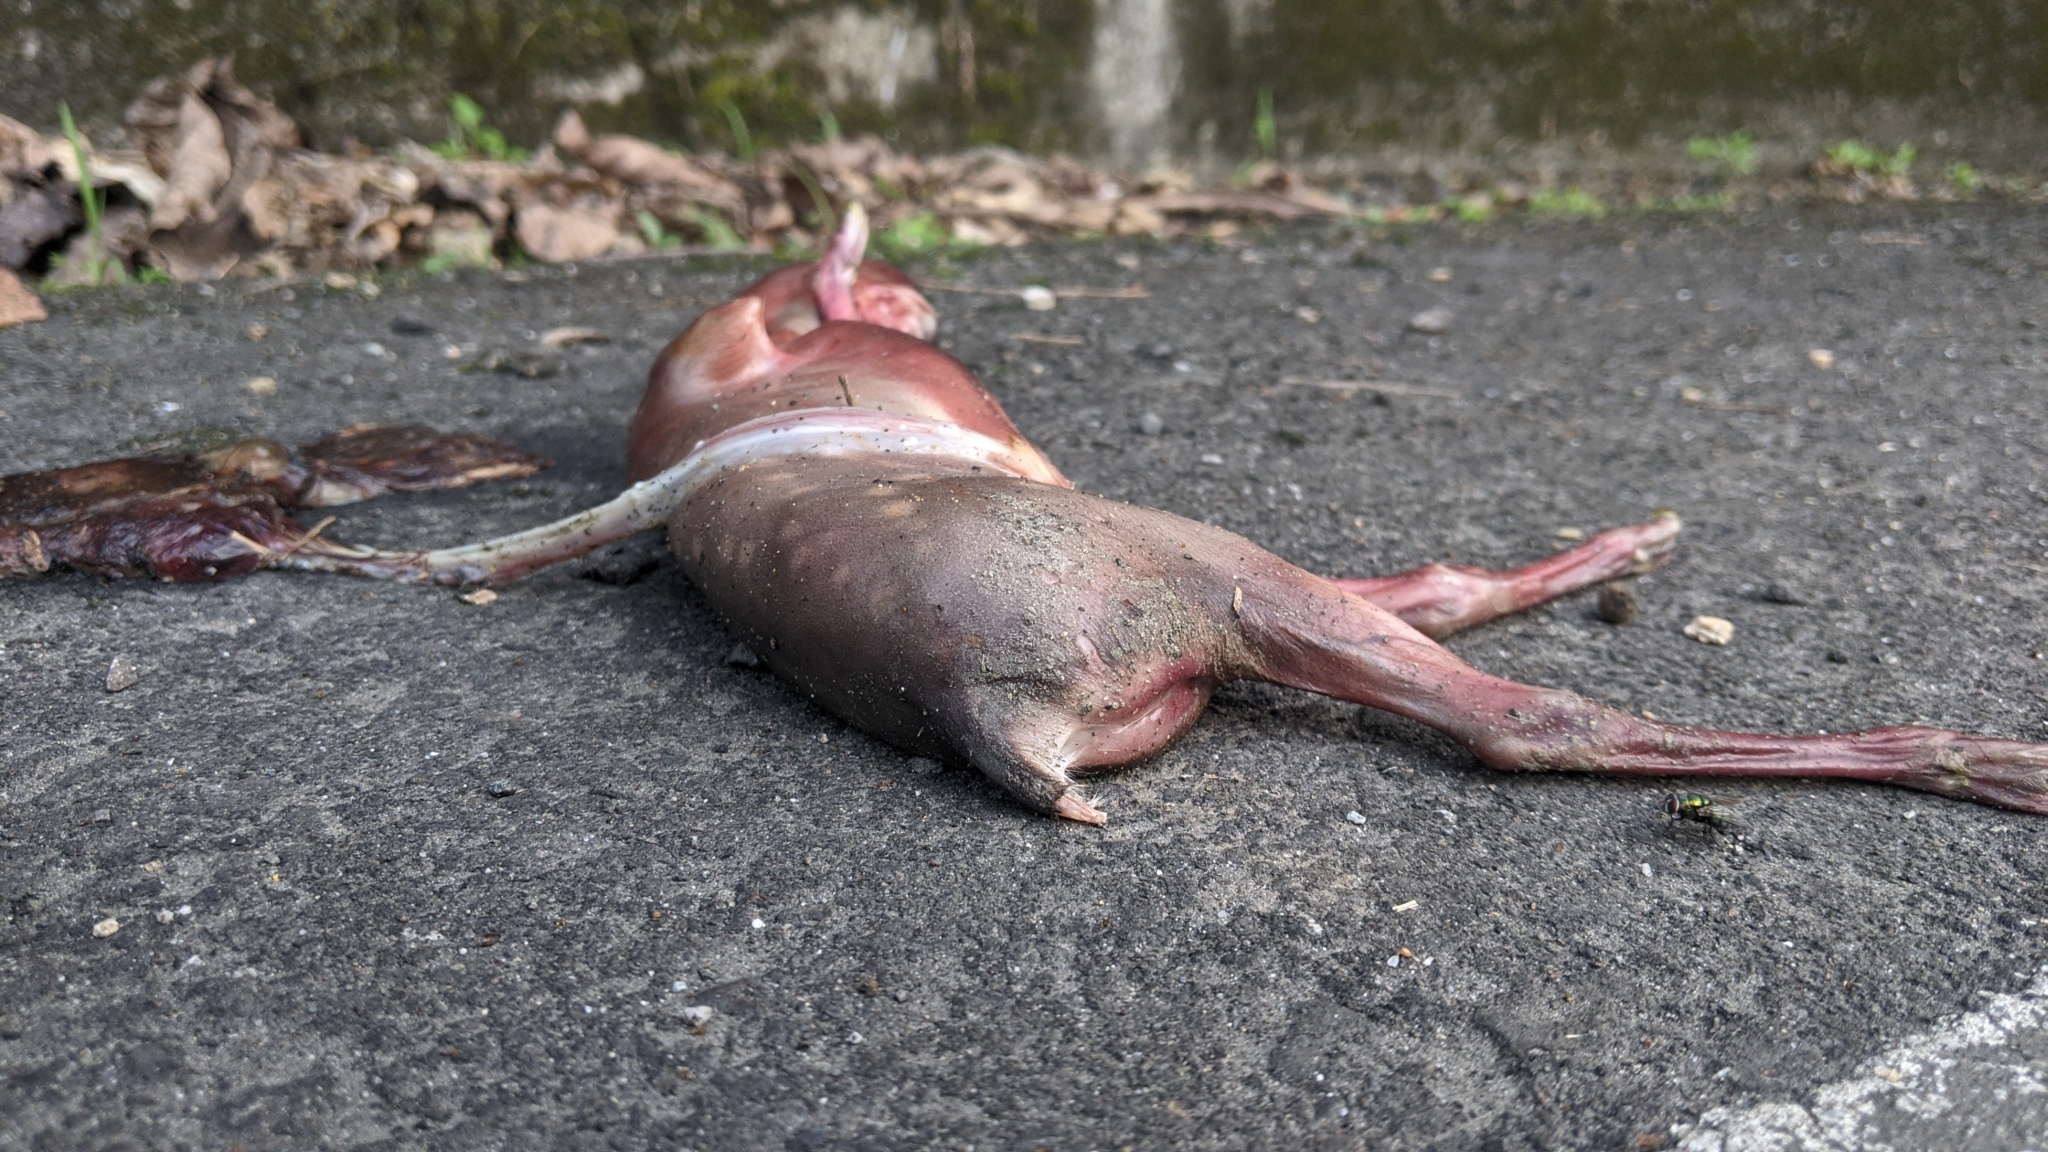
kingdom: Animalia
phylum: Chordata
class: Mammalia
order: Artiodactyla
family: Cervidae
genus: Muntiacus
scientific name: Muntiacus reevesi
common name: Reeves' muntjac
